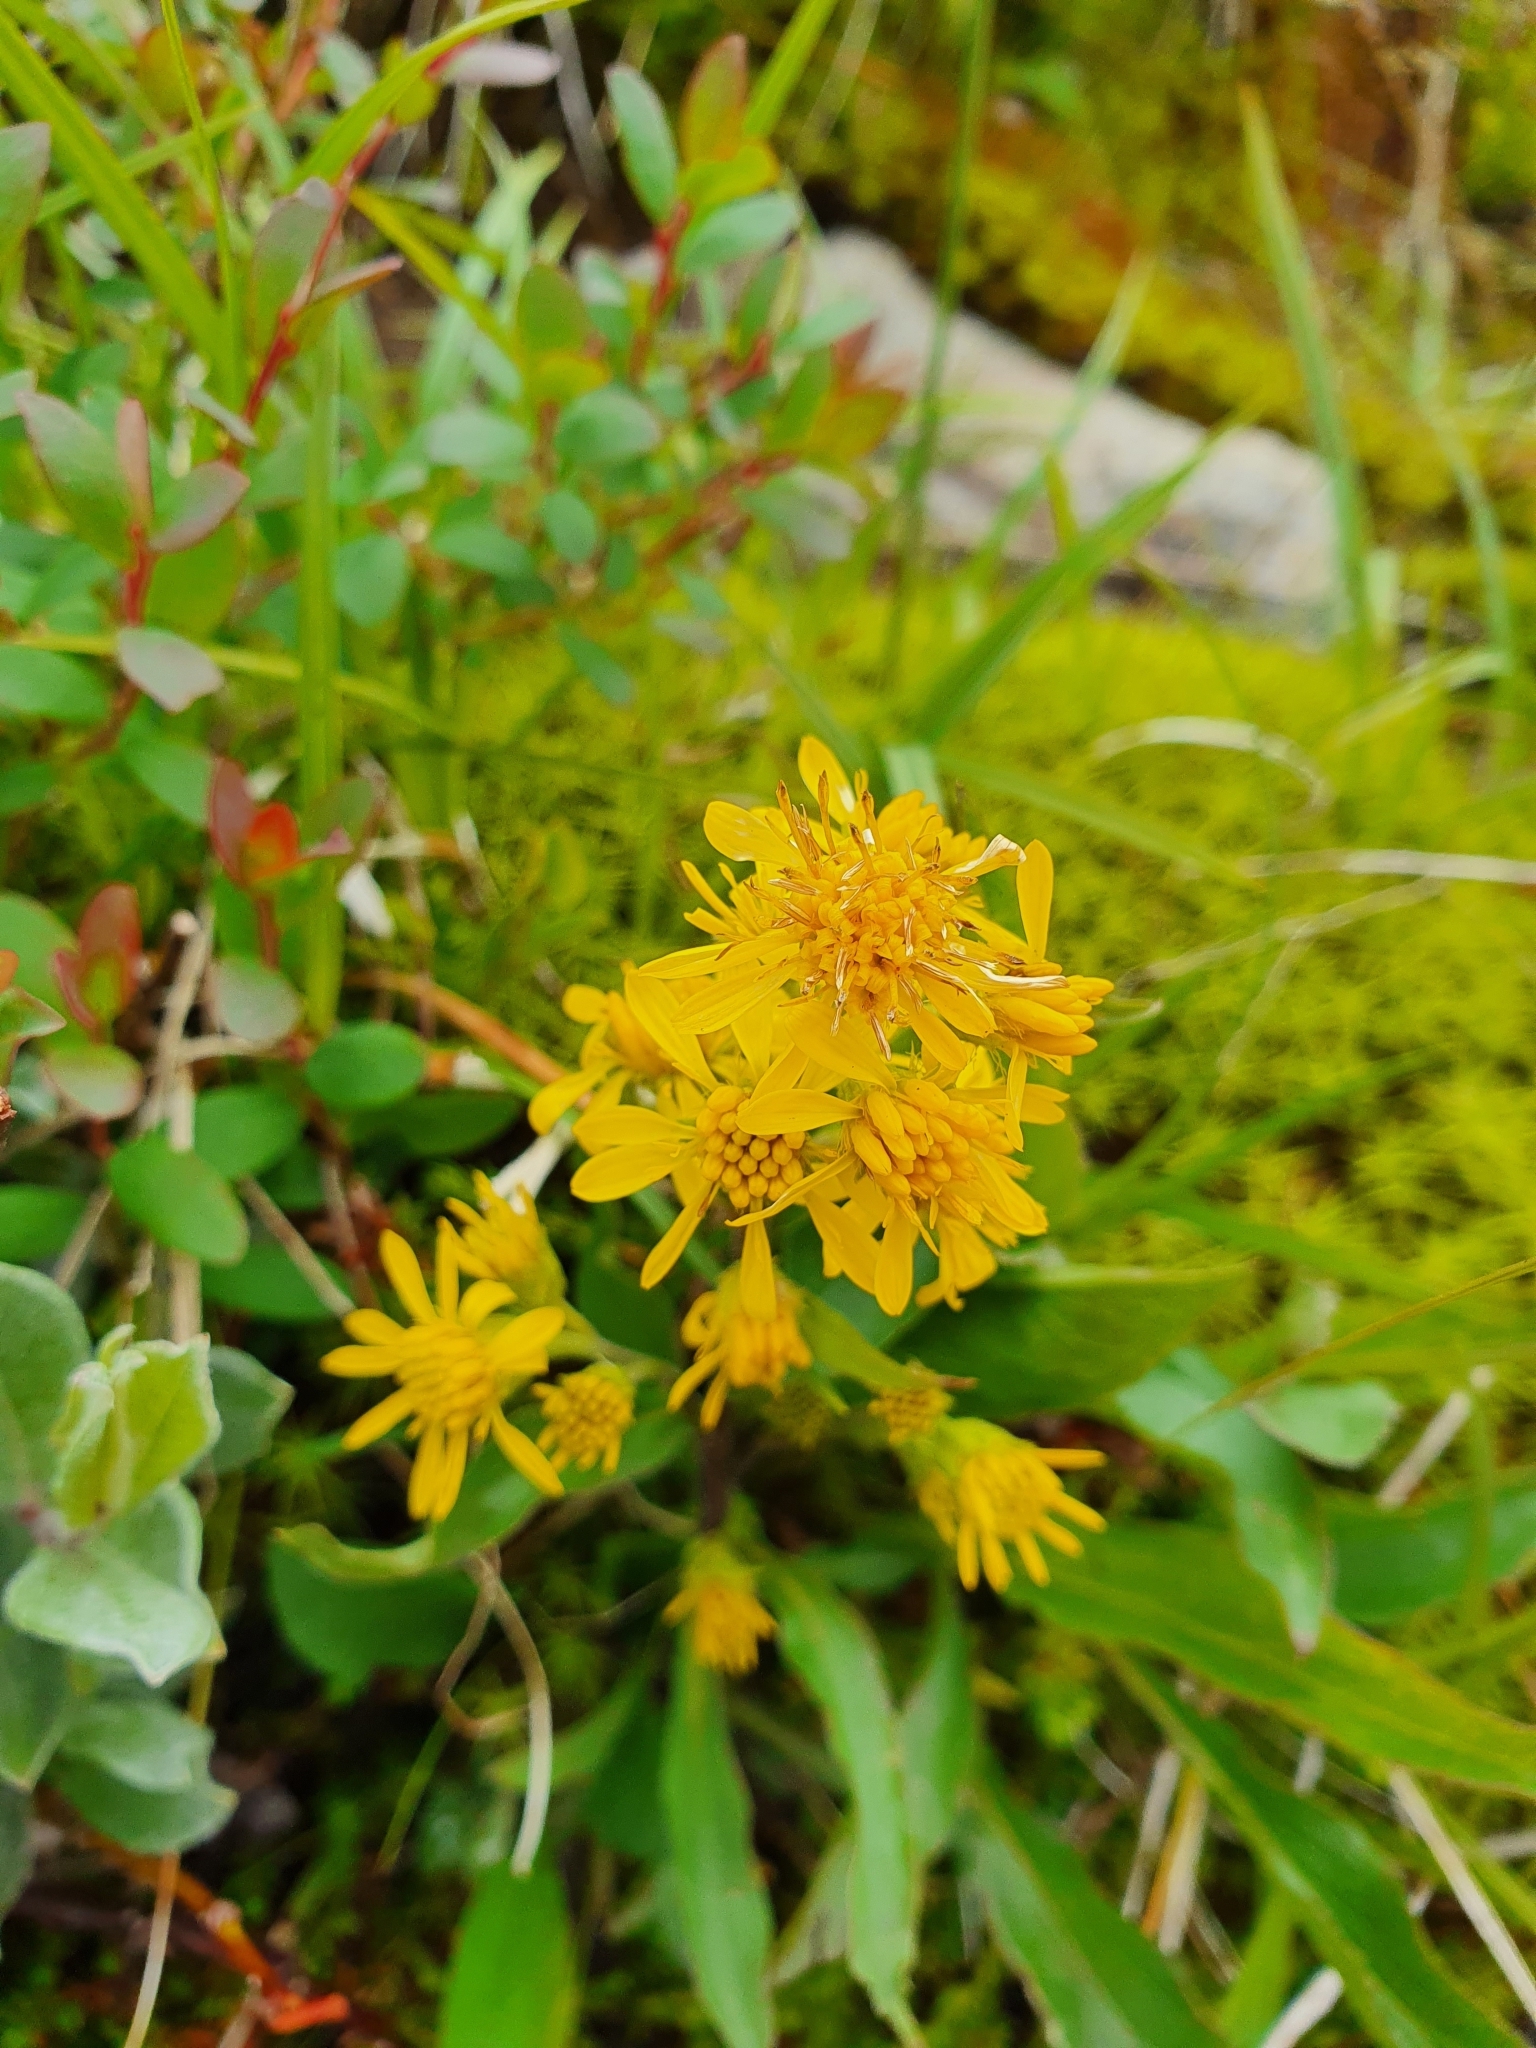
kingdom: Plantae
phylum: Tracheophyta
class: Magnoliopsida
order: Asterales
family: Asteraceae
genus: Solidago
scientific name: Solidago virgaurea
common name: Goldenrod
